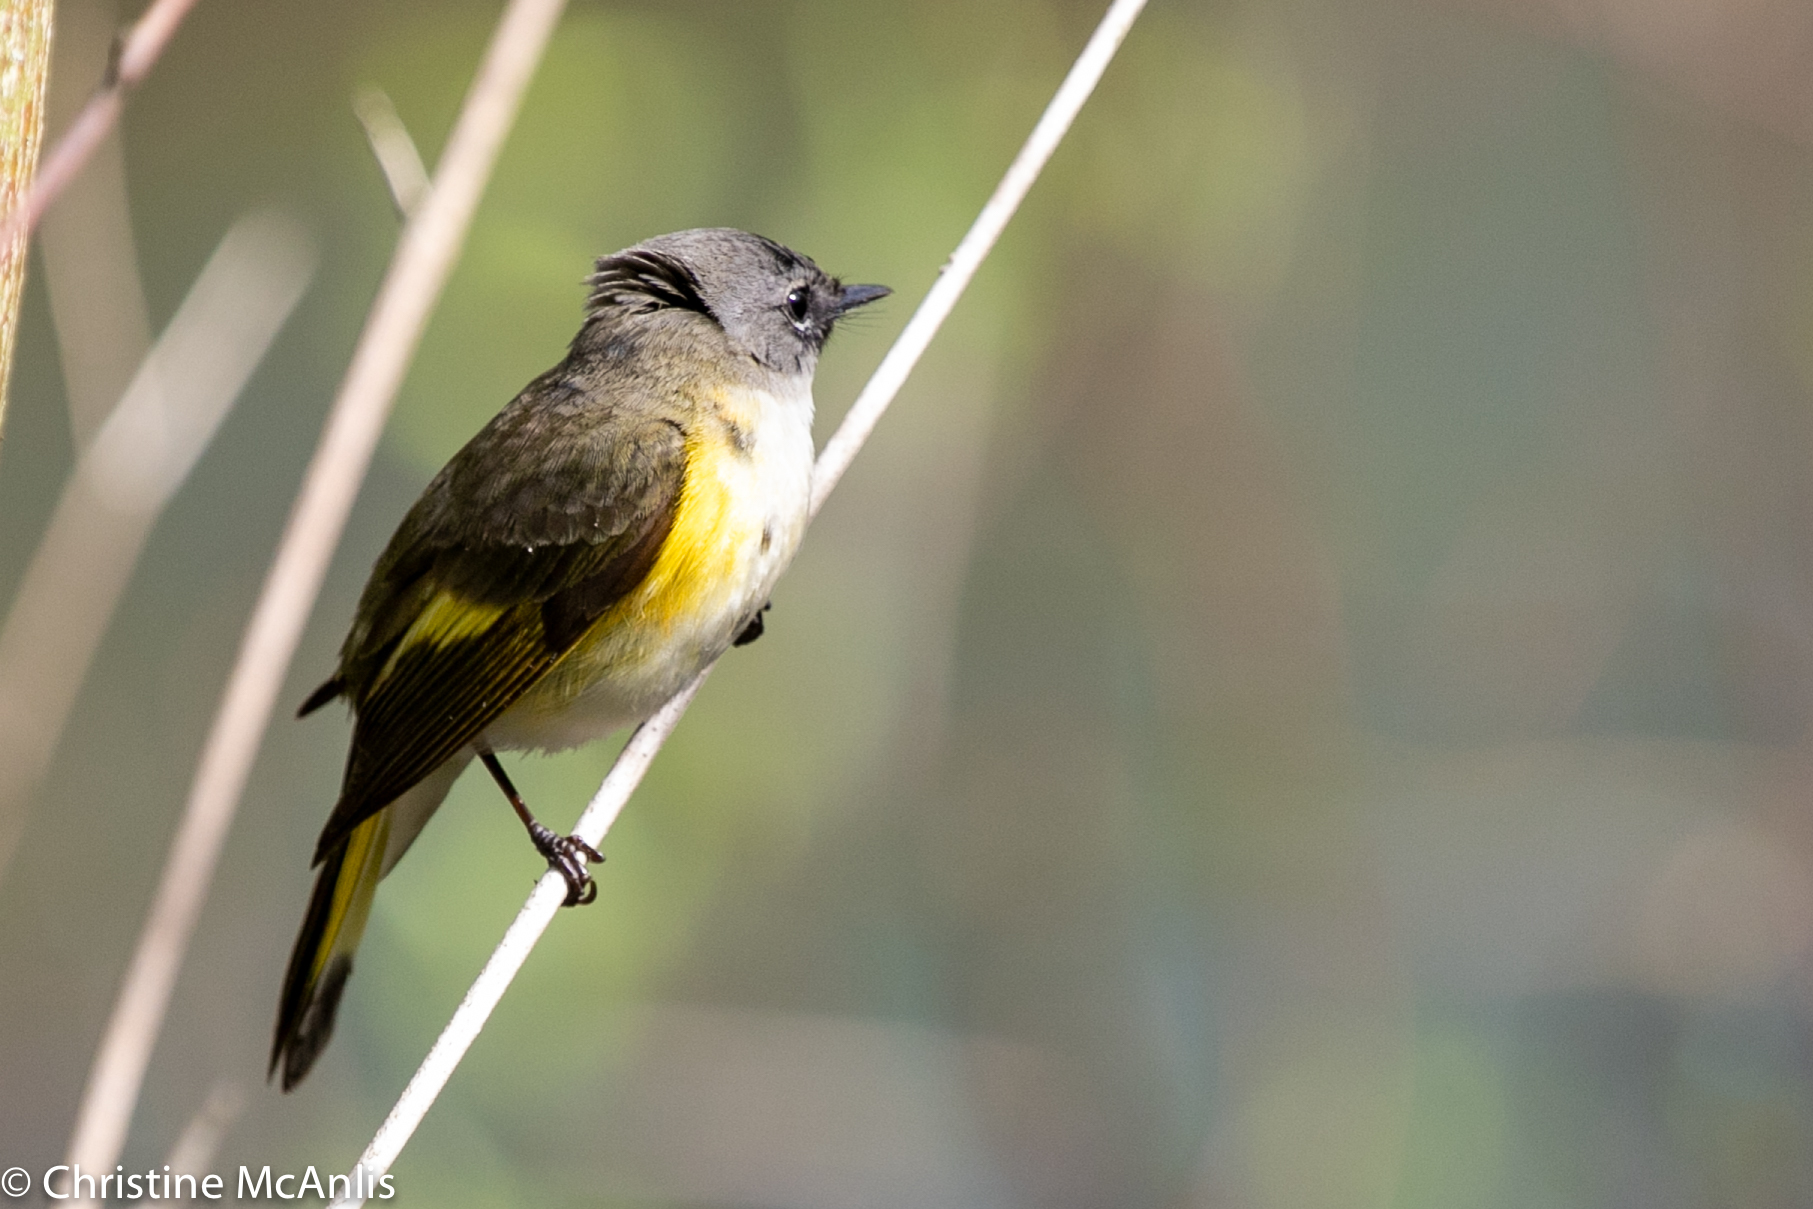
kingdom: Animalia
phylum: Chordata
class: Aves
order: Passeriformes
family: Parulidae
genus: Setophaga
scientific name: Setophaga ruticilla
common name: American redstart
